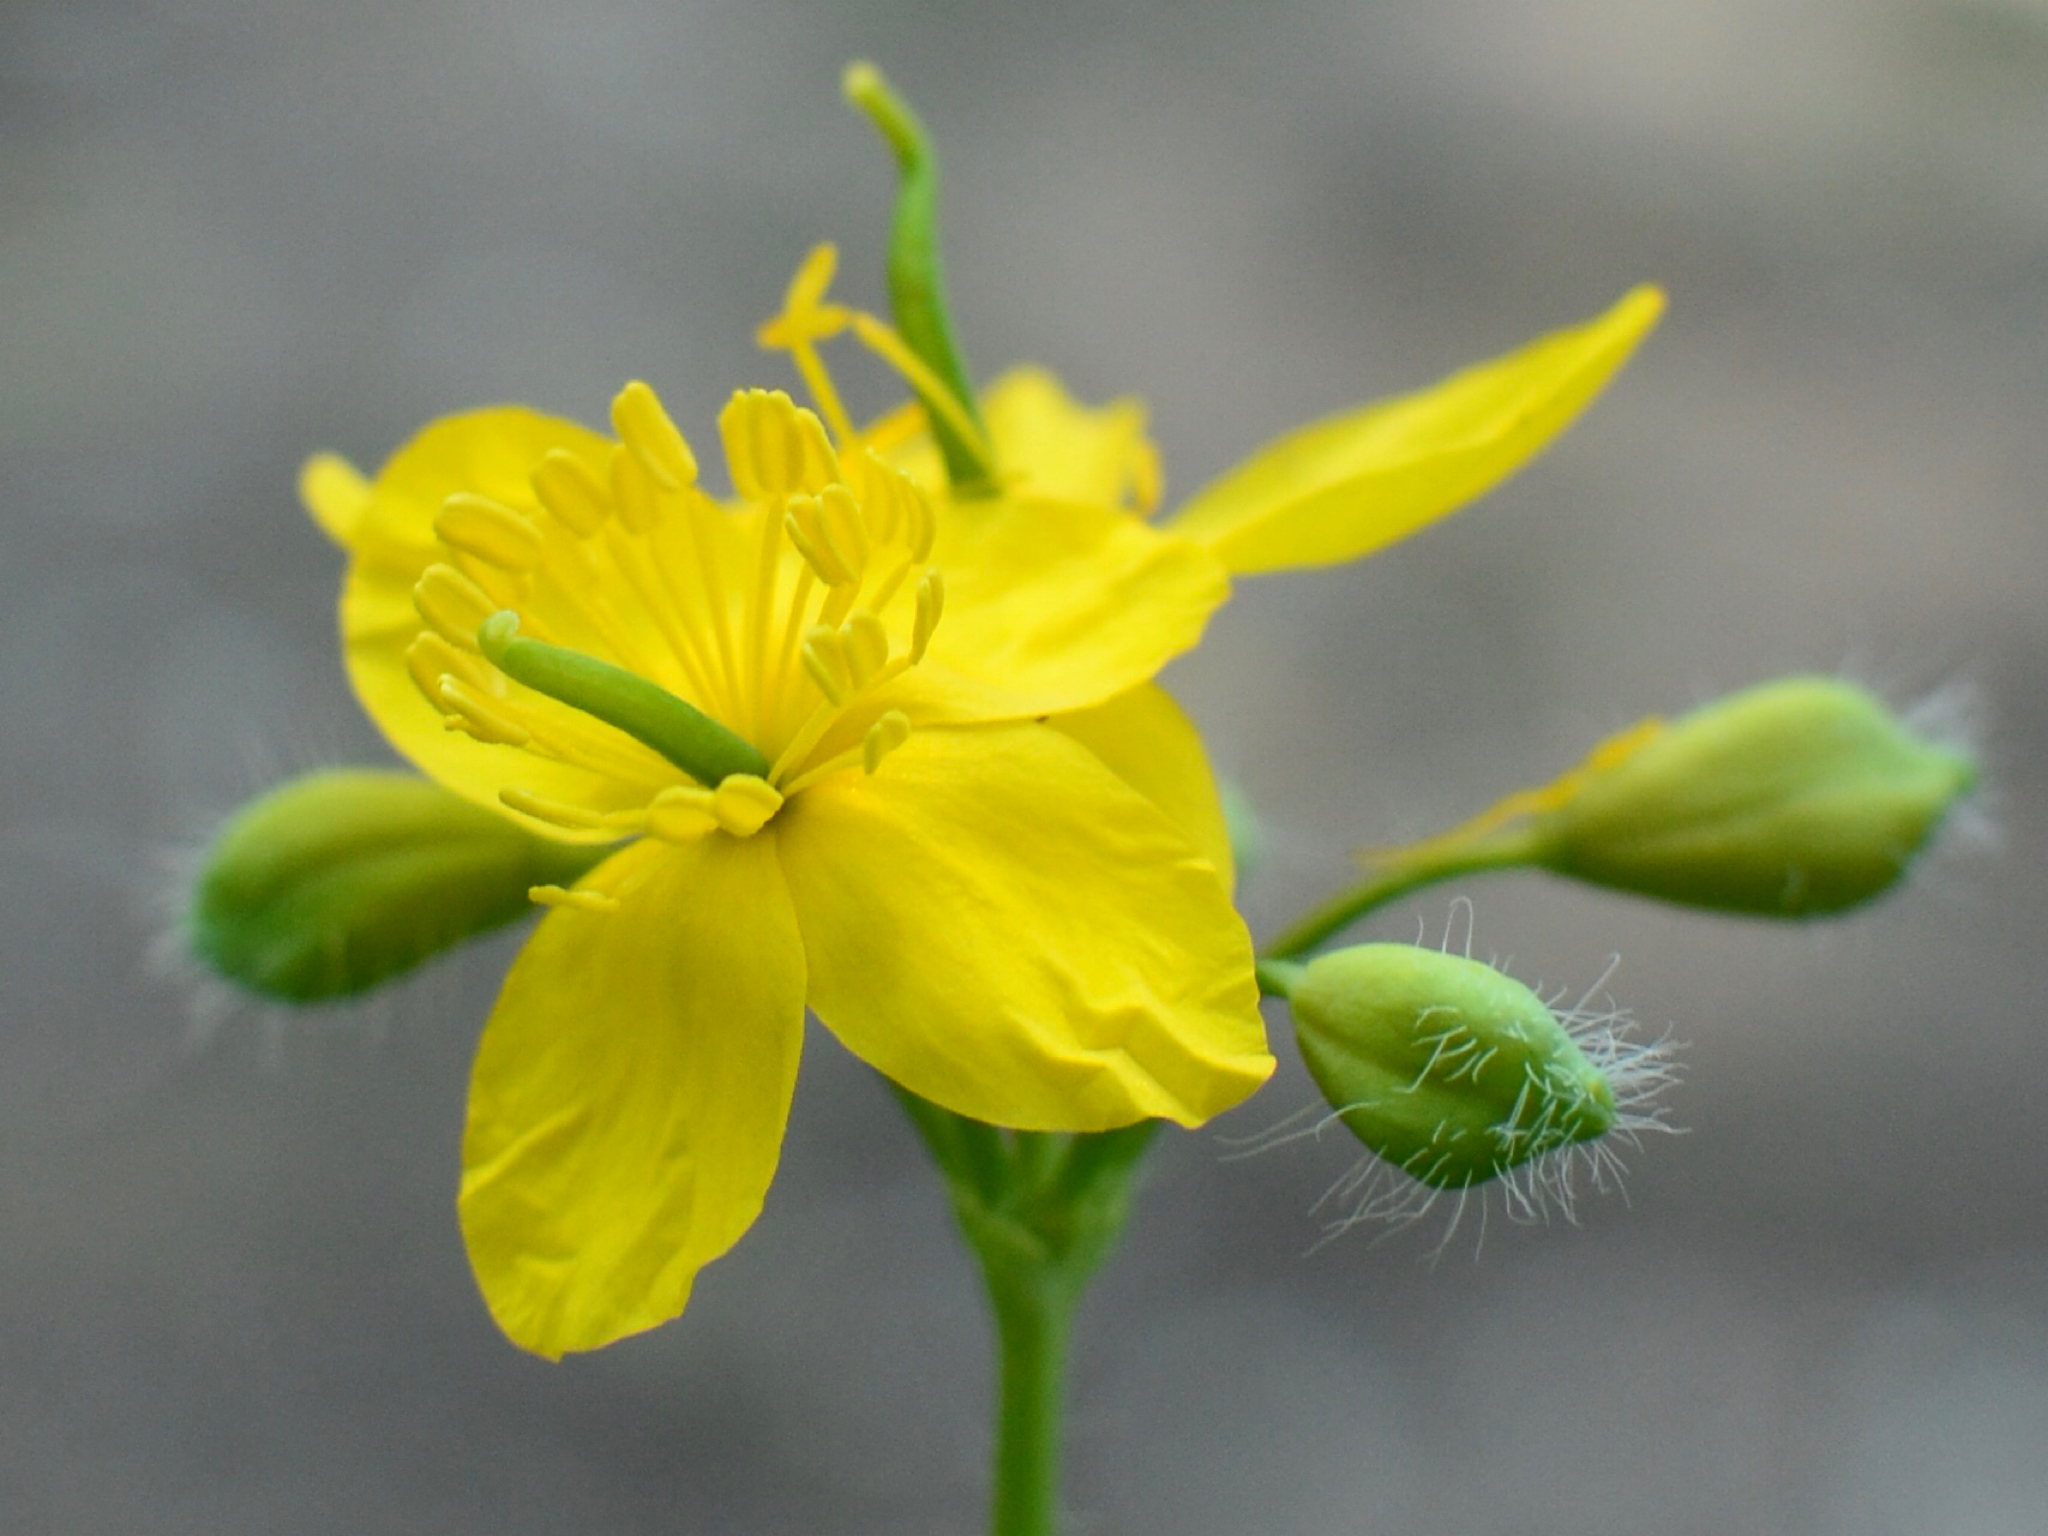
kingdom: Plantae
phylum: Tracheophyta
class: Magnoliopsida
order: Ranunculales
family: Papaveraceae
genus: Chelidonium
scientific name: Chelidonium majus
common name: Greater celandine
